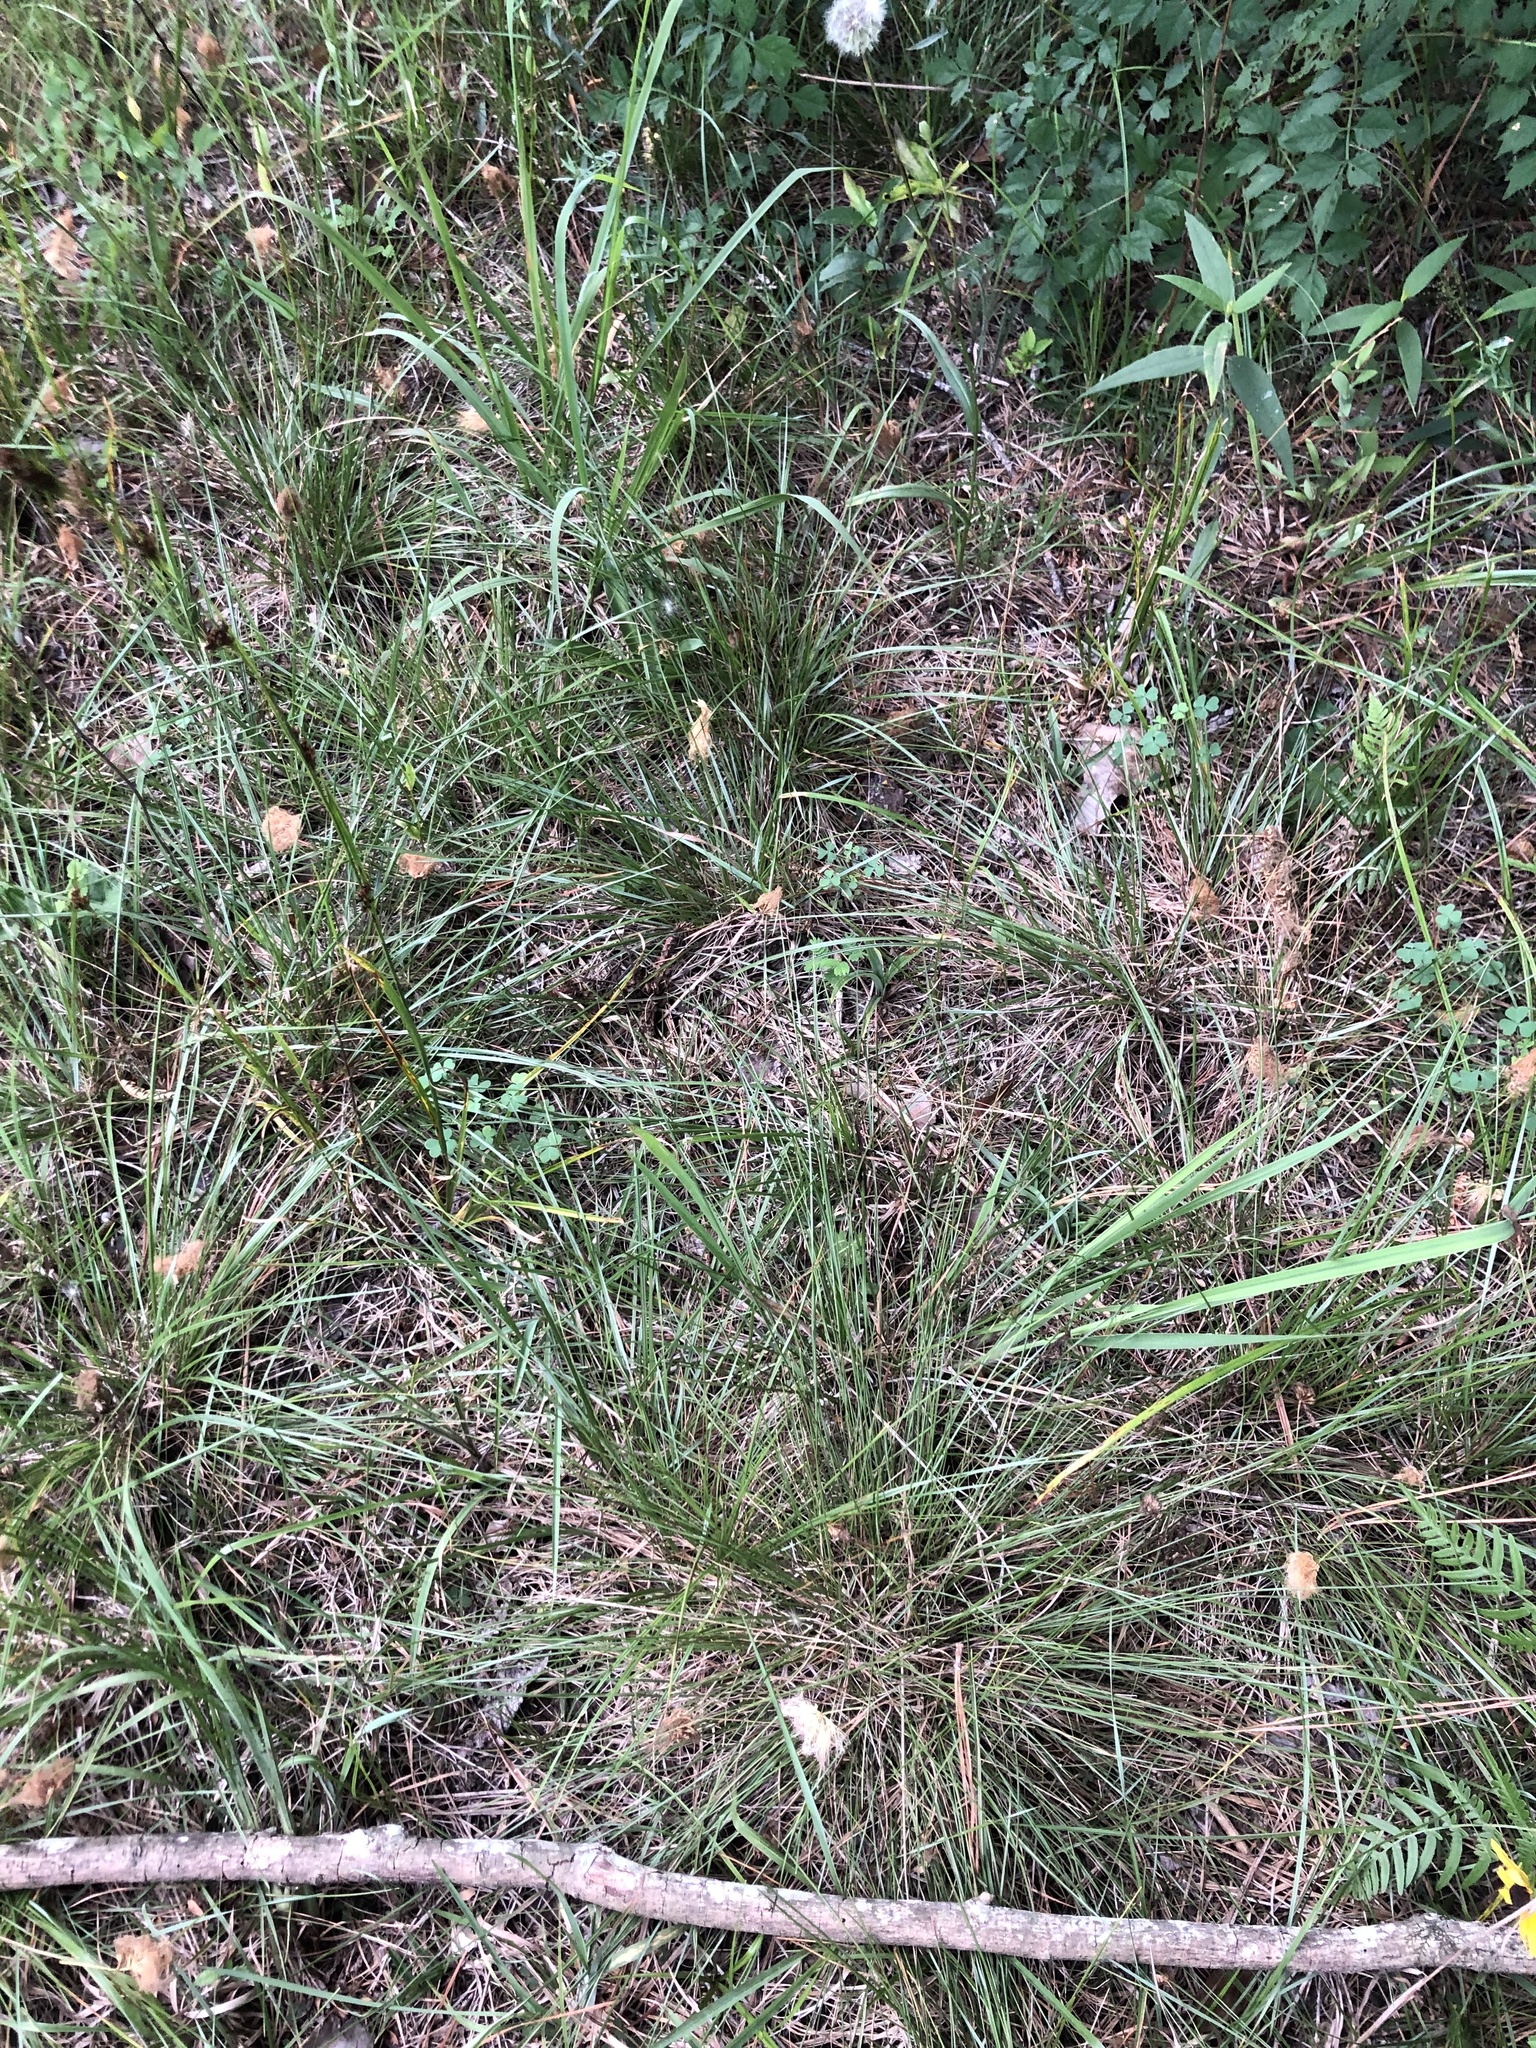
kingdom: Plantae
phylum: Tracheophyta
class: Liliopsida
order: Poales
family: Poaceae
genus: Sporobolus
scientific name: Sporobolus junceus
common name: Lizard grass
